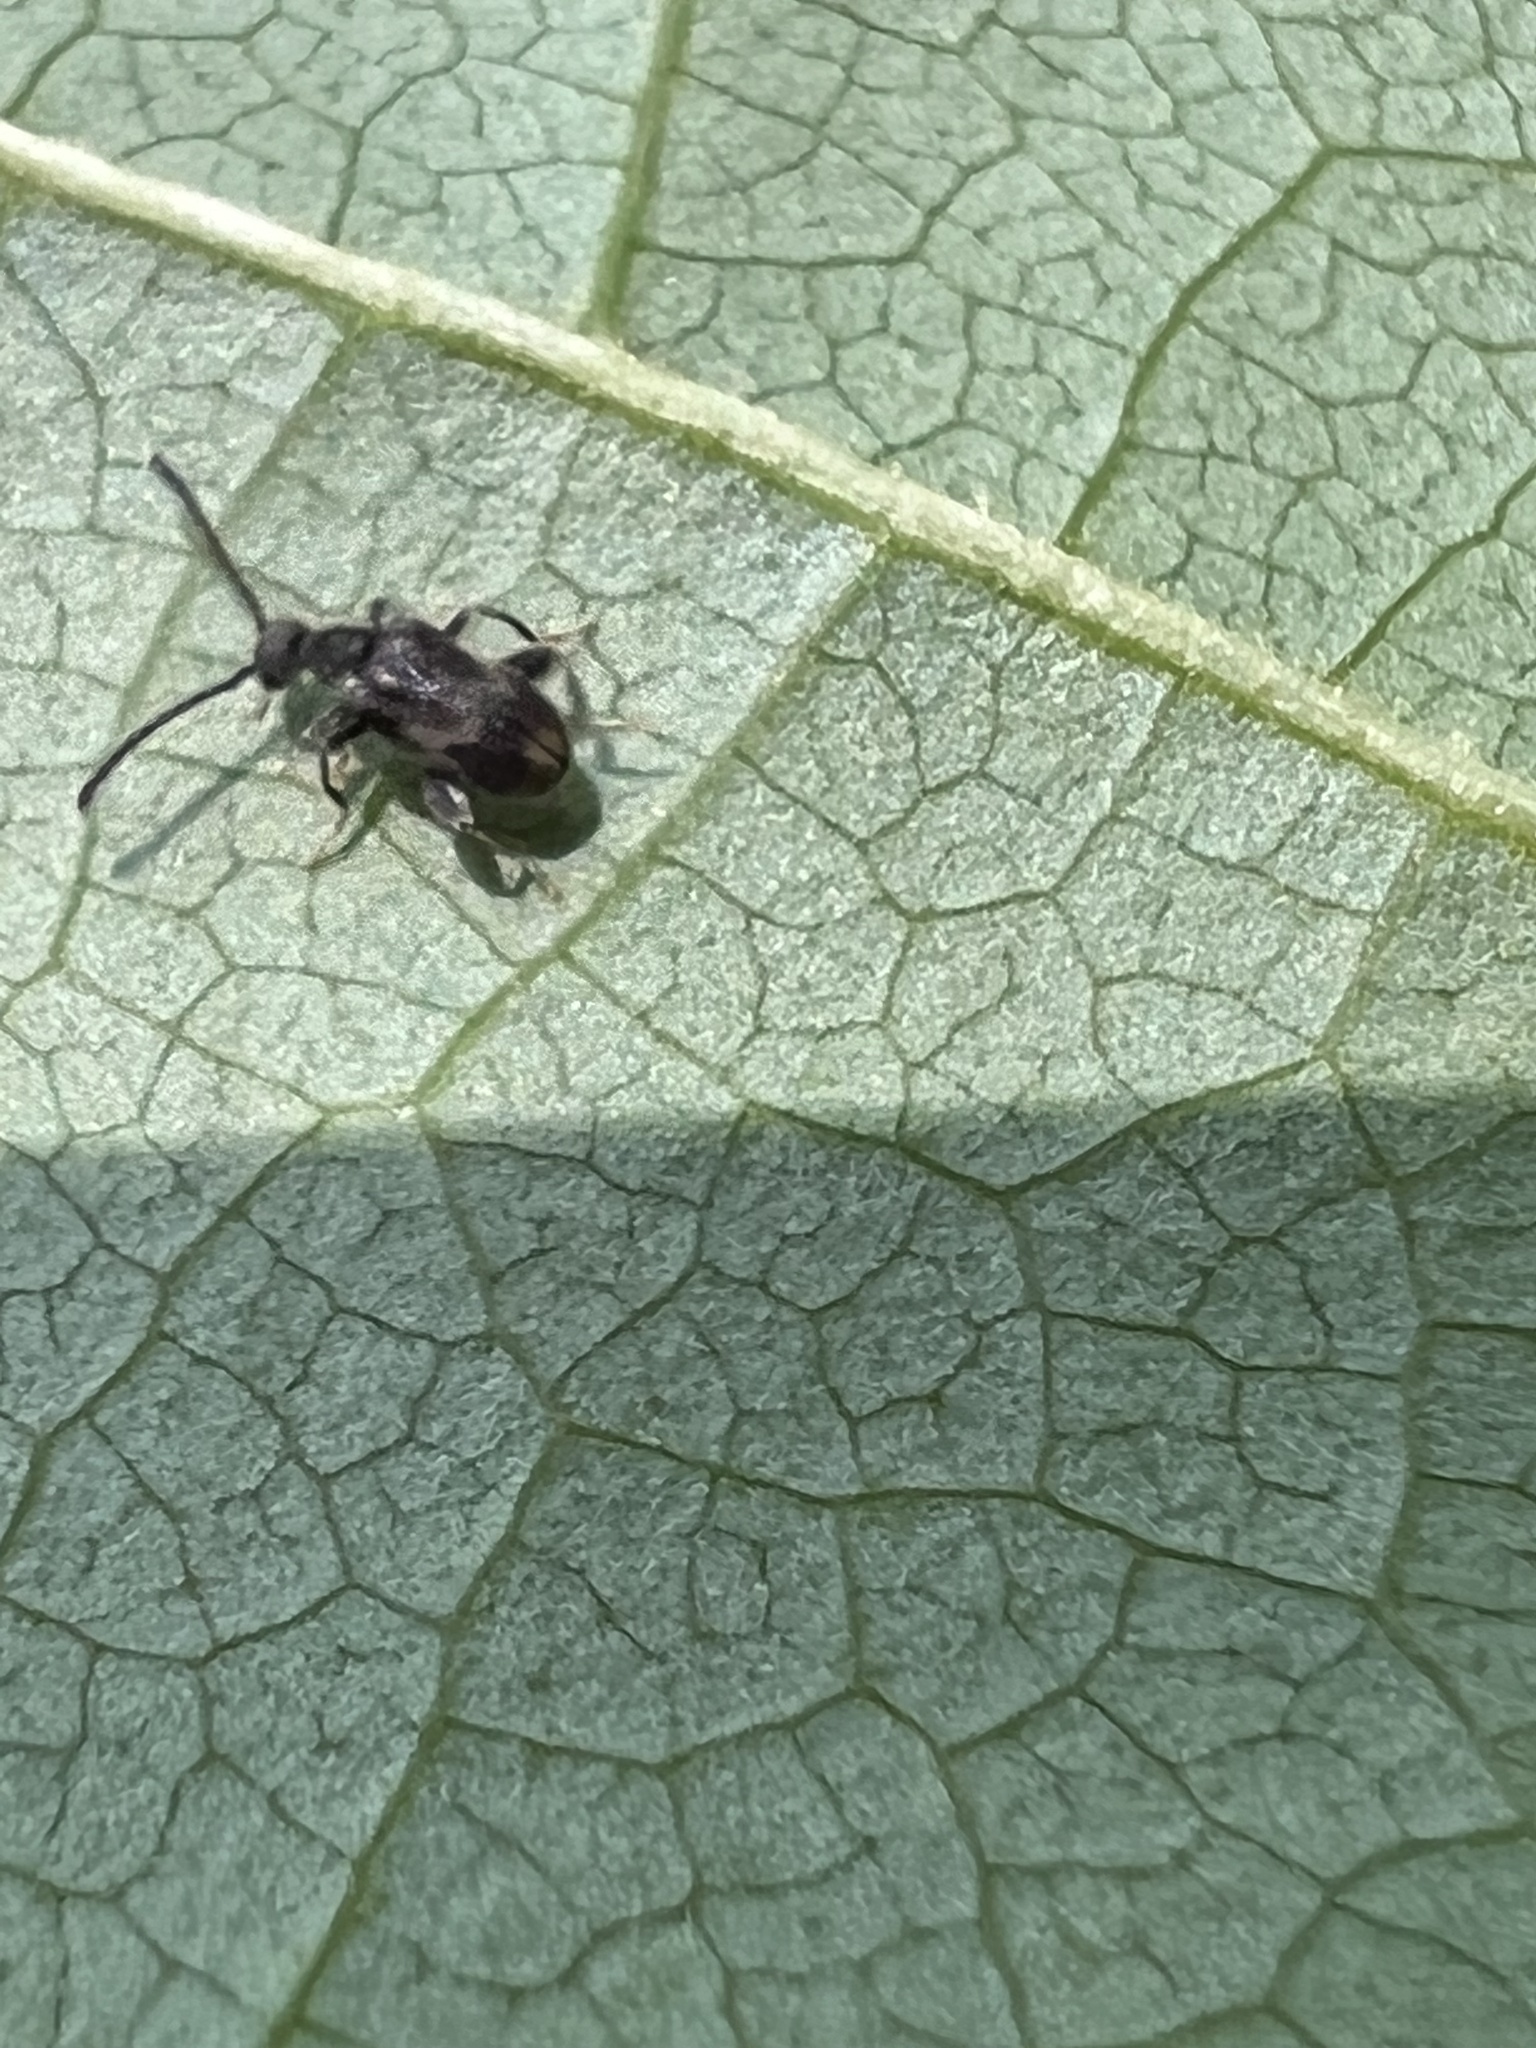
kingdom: Animalia
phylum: Arthropoda
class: Insecta
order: Coleoptera
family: Aderidae
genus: Elonus
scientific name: Elonus nebulosus
